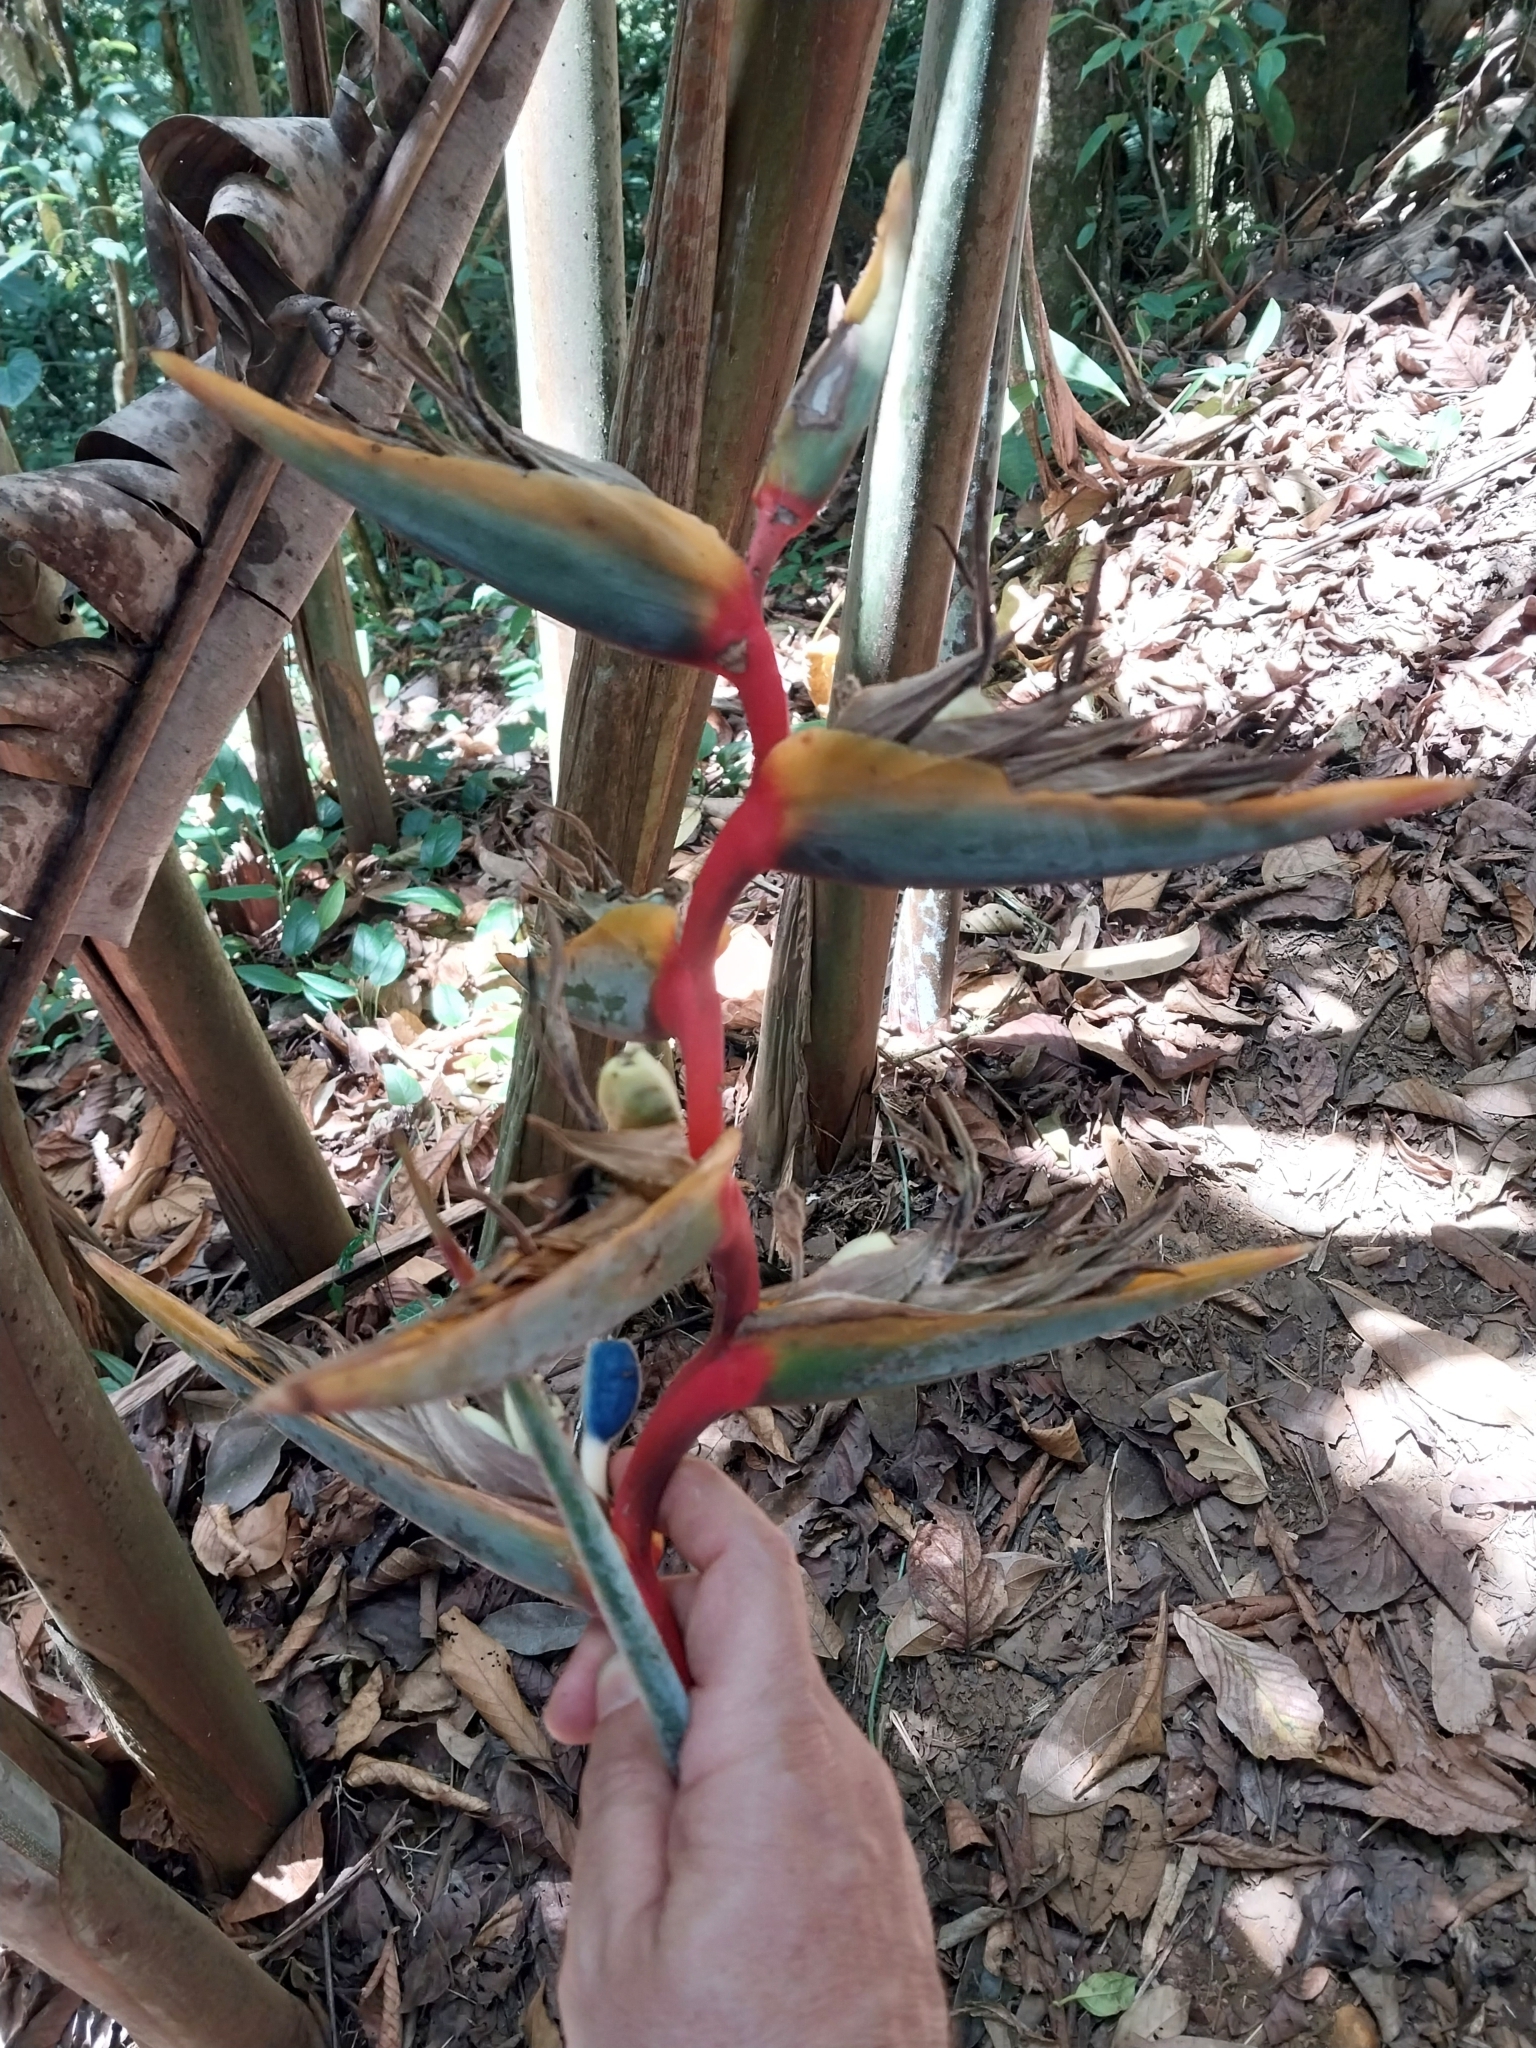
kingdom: Plantae
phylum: Tracheophyta
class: Liliopsida
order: Zingiberales
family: Heliconiaceae
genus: Heliconia
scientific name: Heliconia griggsiana
